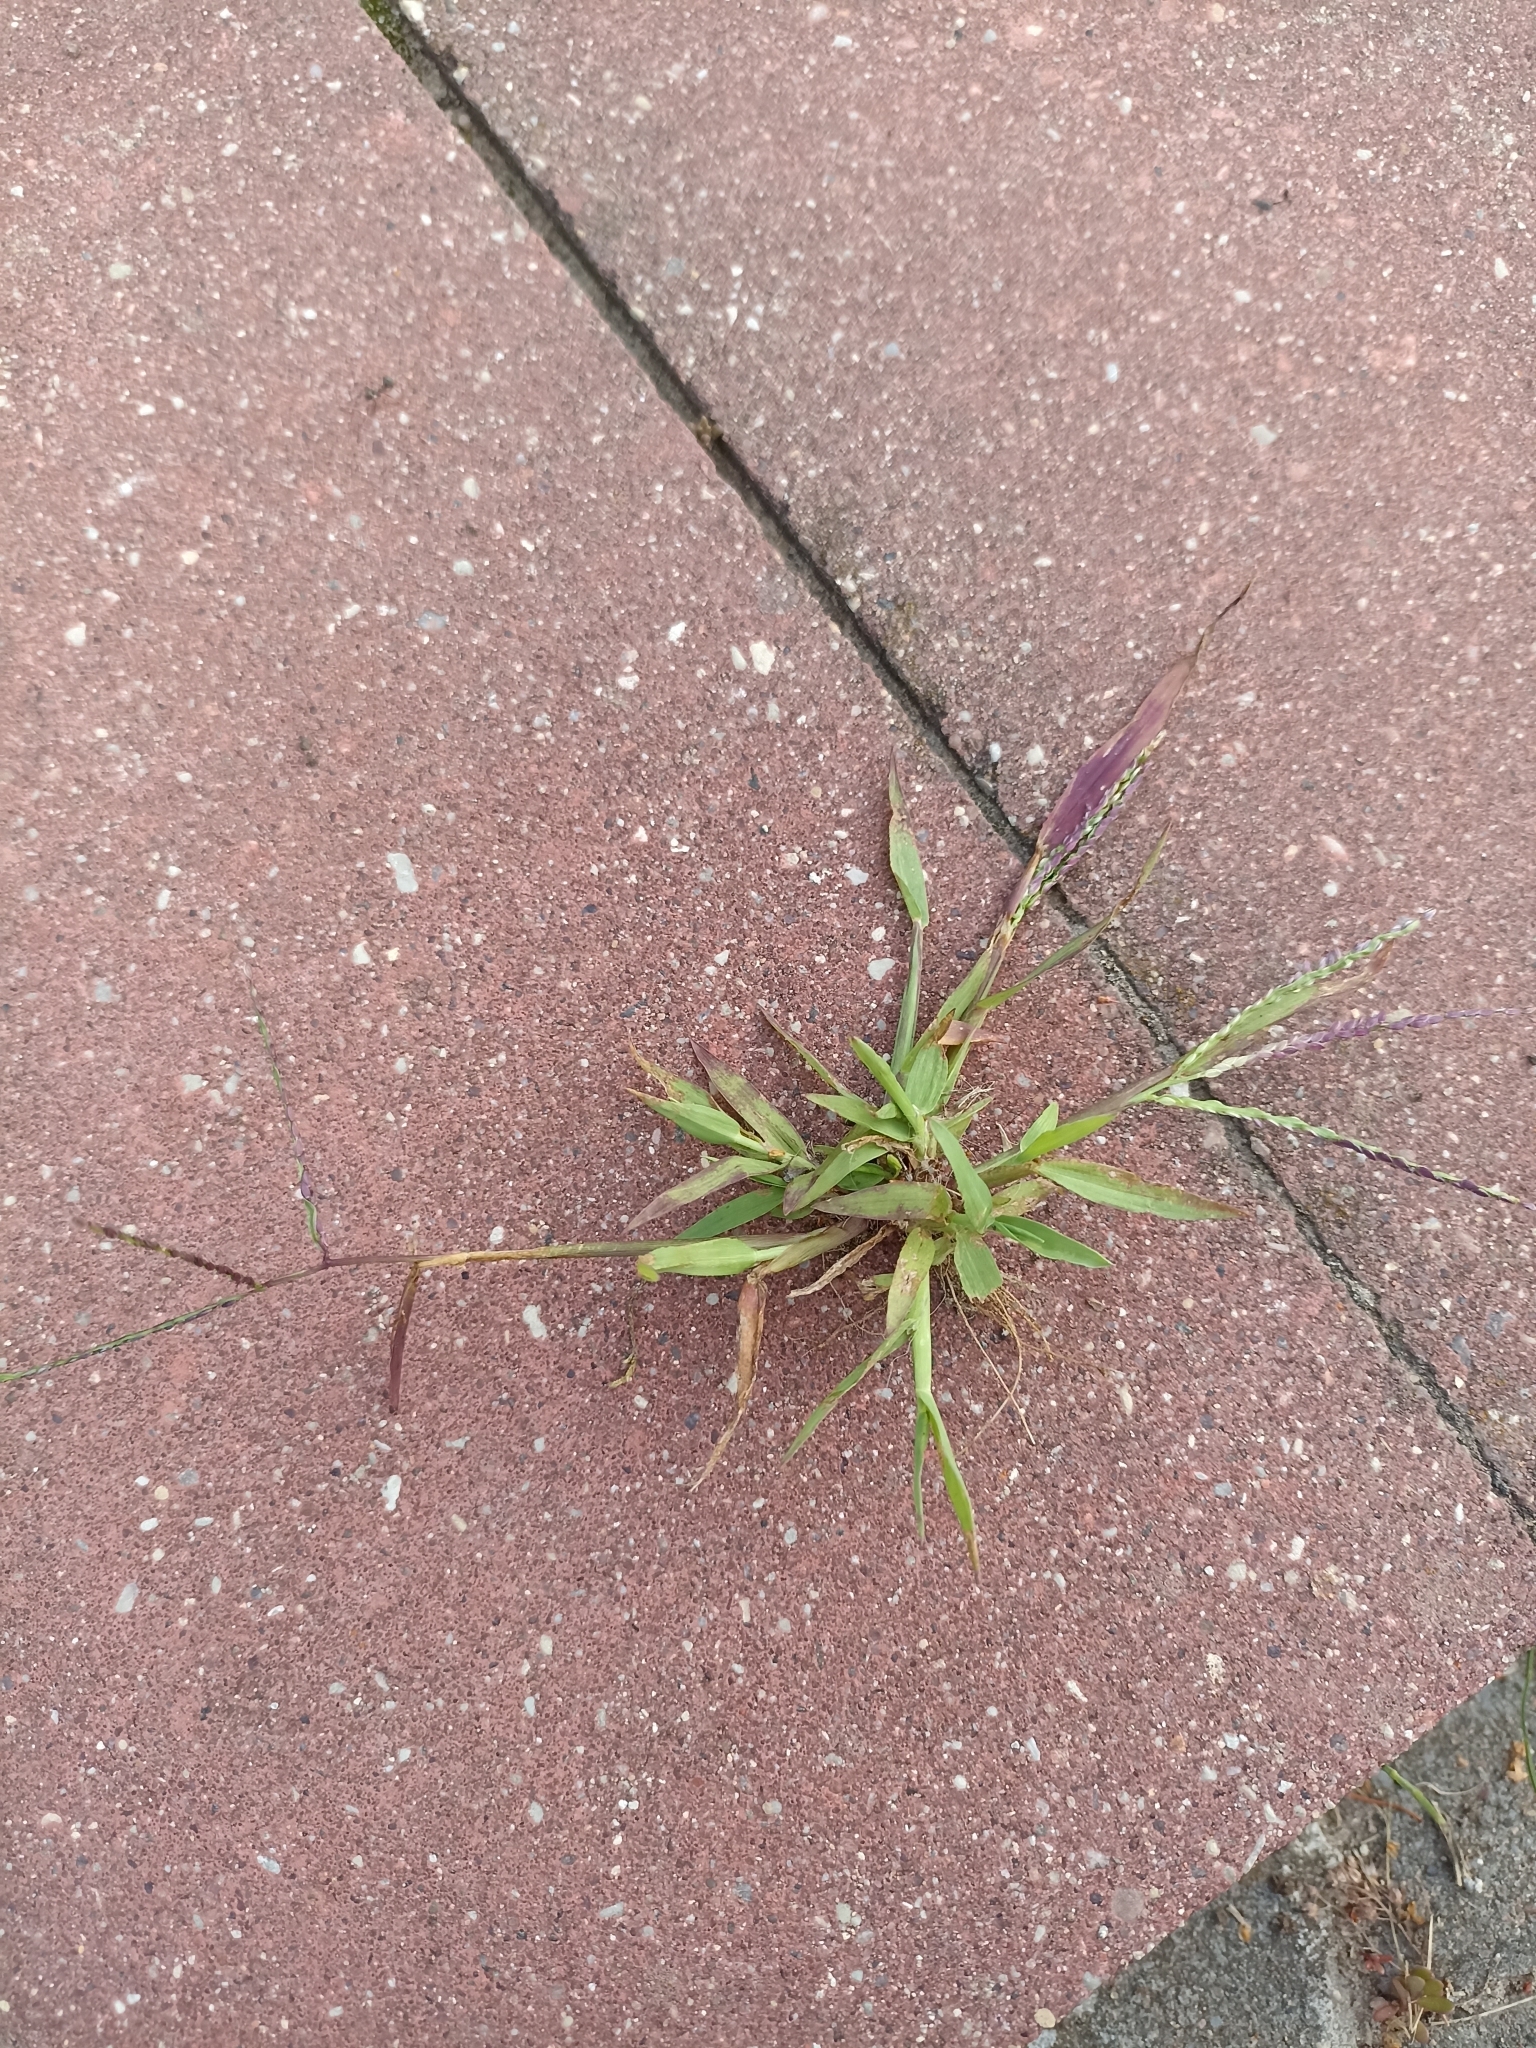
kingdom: Plantae
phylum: Tracheophyta
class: Liliopsida
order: Poales
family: Poaceae
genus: Digitaria
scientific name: Digitaria ischaemum
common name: Smooth crabgrass
